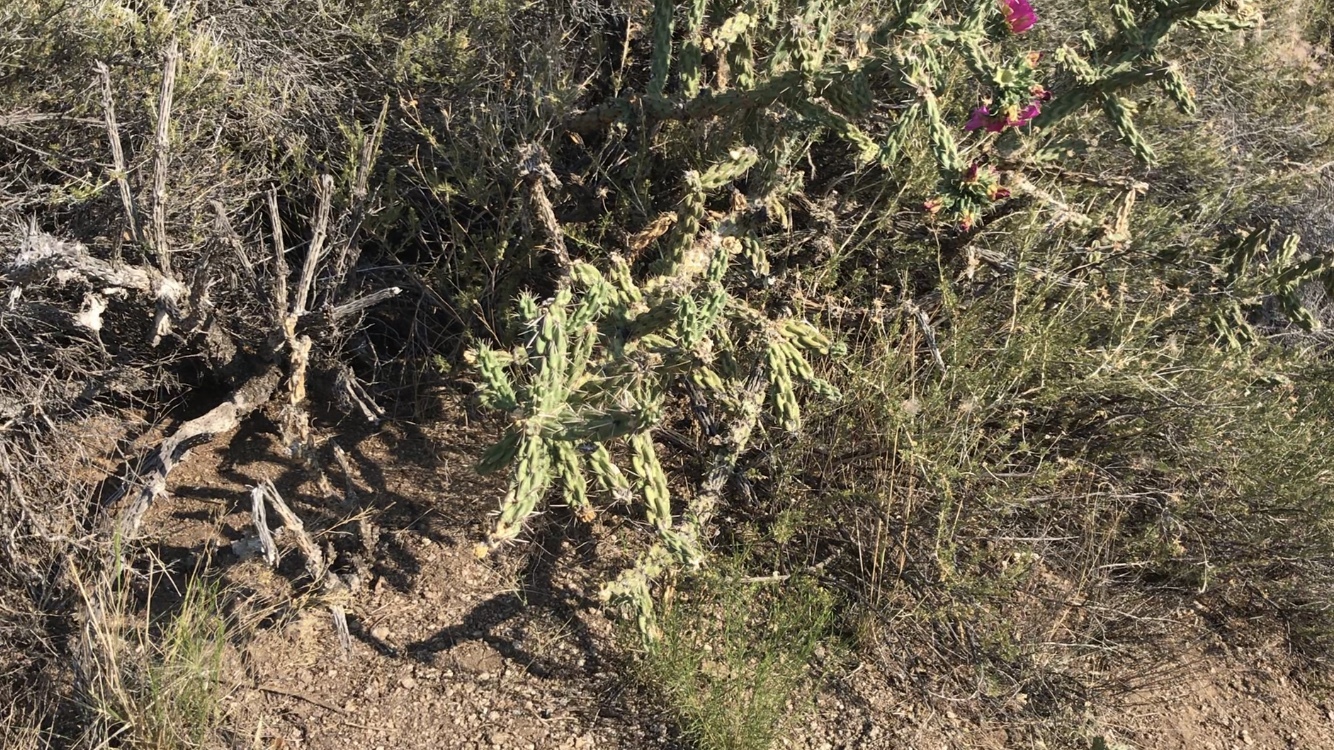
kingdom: Plantae
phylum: Tracheophyta
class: Magnoliopsida
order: Caryophyllales
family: Cactaceae
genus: Cylindropuntia
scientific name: Cylindropuntia imbricata
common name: Candelabrum cactus
